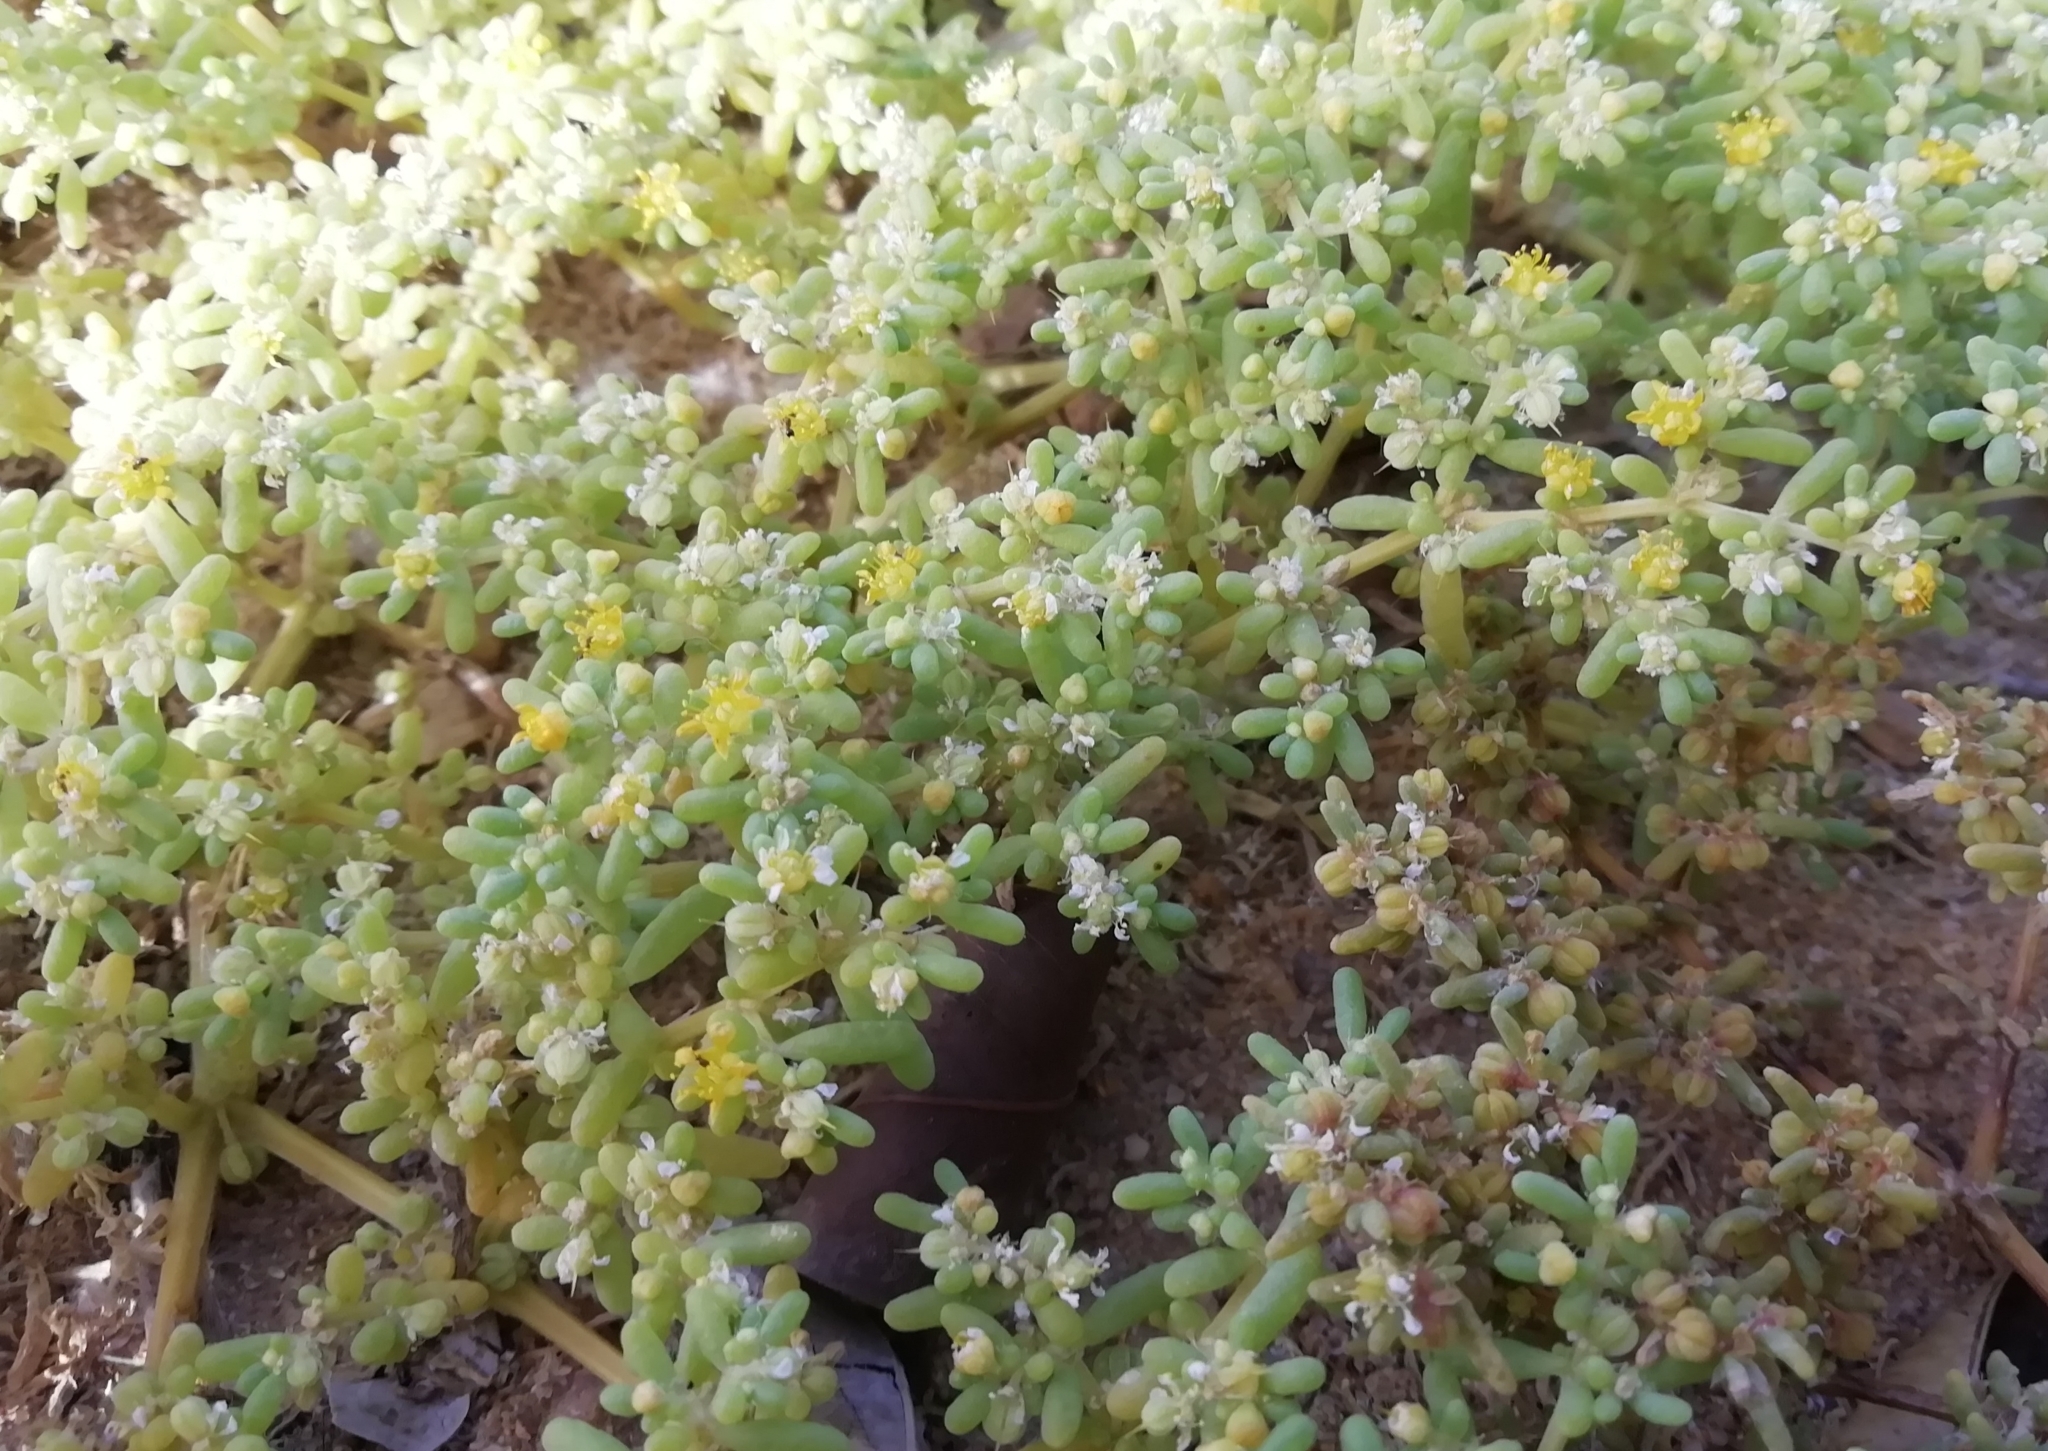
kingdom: Plantae
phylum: Tracheophyta
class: Magnoliopsida
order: Zygophyllales
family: Zygophyllaceae
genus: Tetraena
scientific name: Tetraena simplex
